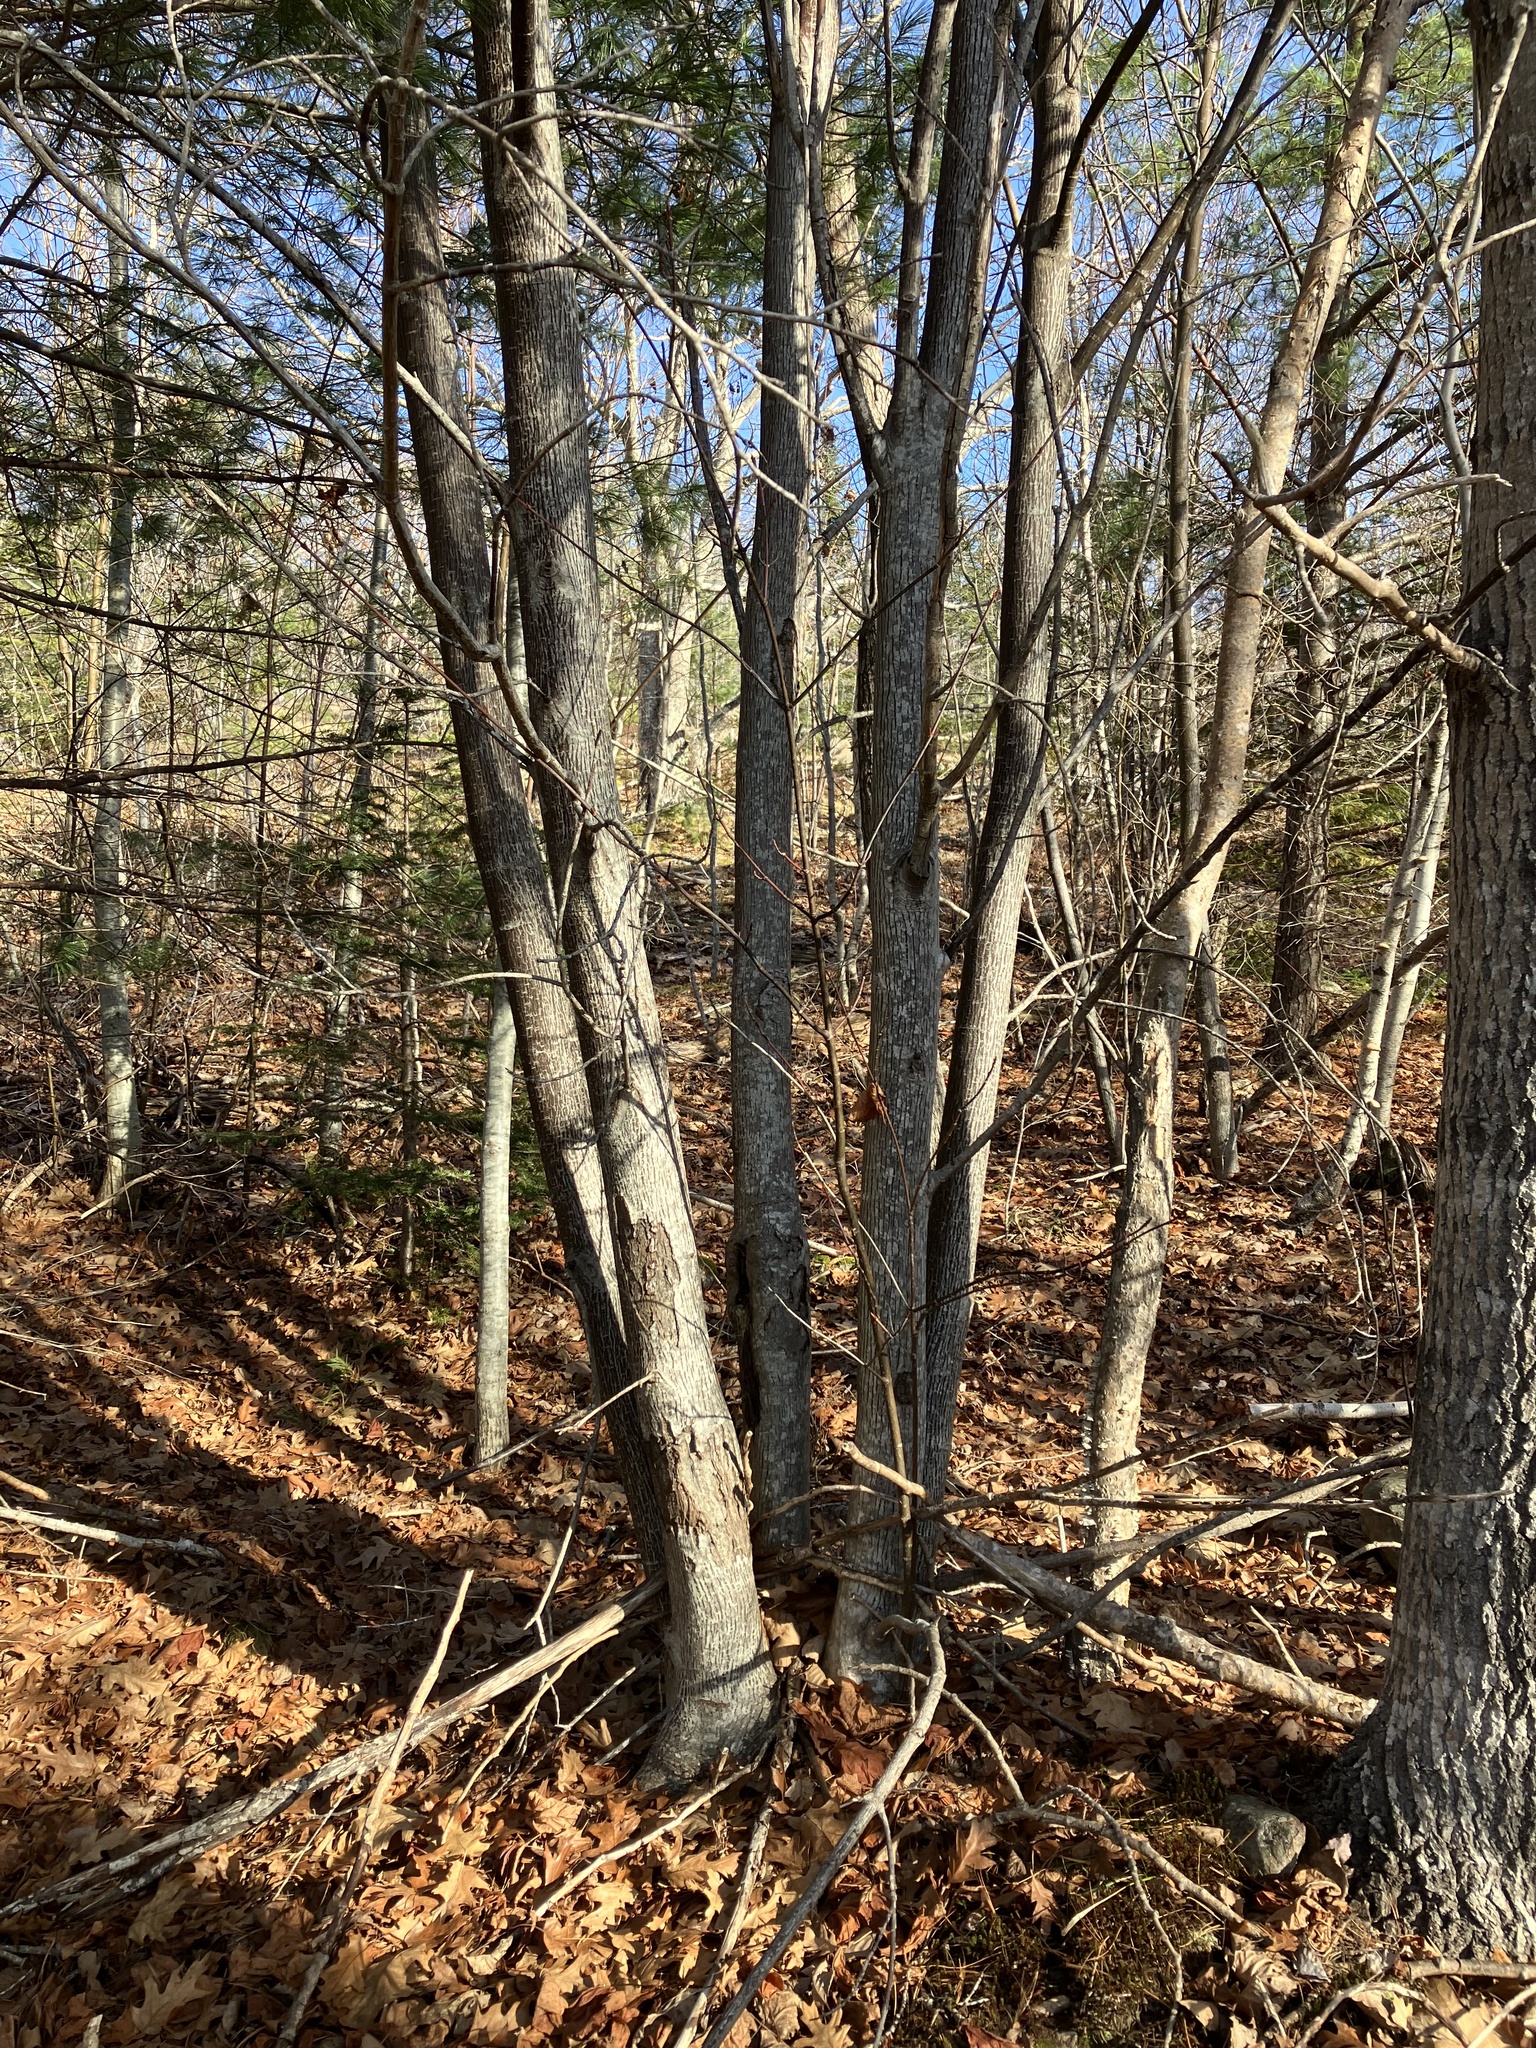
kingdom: Plantae
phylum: Tracheophyta
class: Magnoliopsida
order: Sapindales
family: Sapindaceae
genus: Acer
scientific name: Acer pensylvanicum
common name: Moosewood
